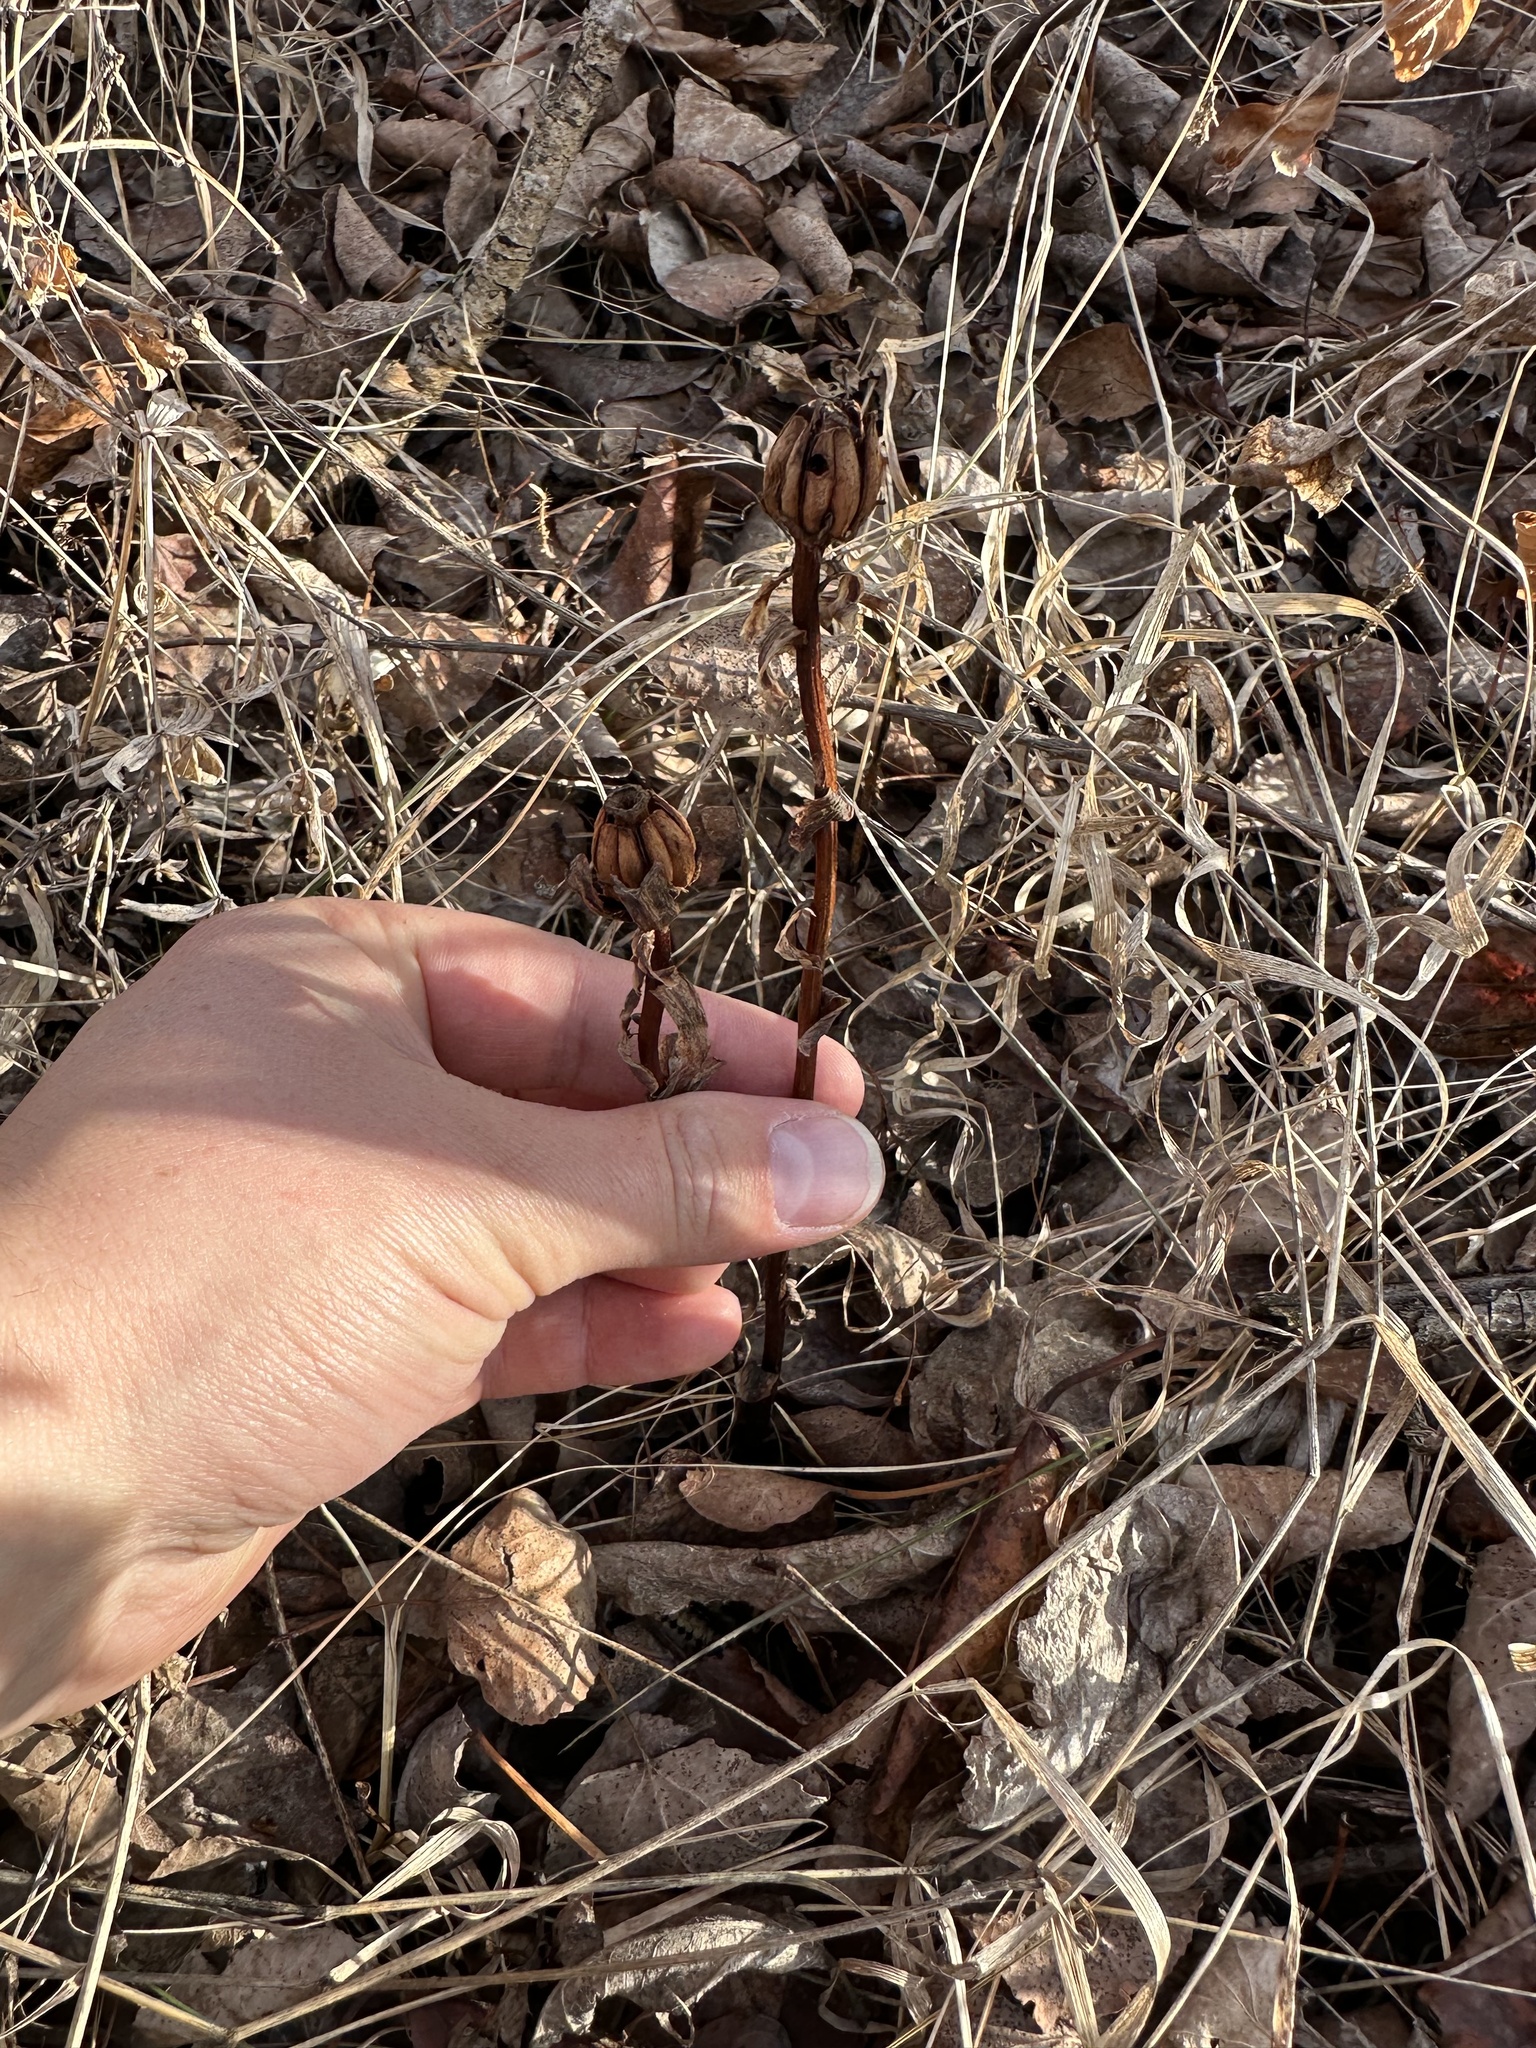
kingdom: Plantae
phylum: Tracheophyta
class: Magnoliopsida
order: Ericales
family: Ericaceae
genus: Monotropa
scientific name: Monotropa uniflora
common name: Convulsion root
